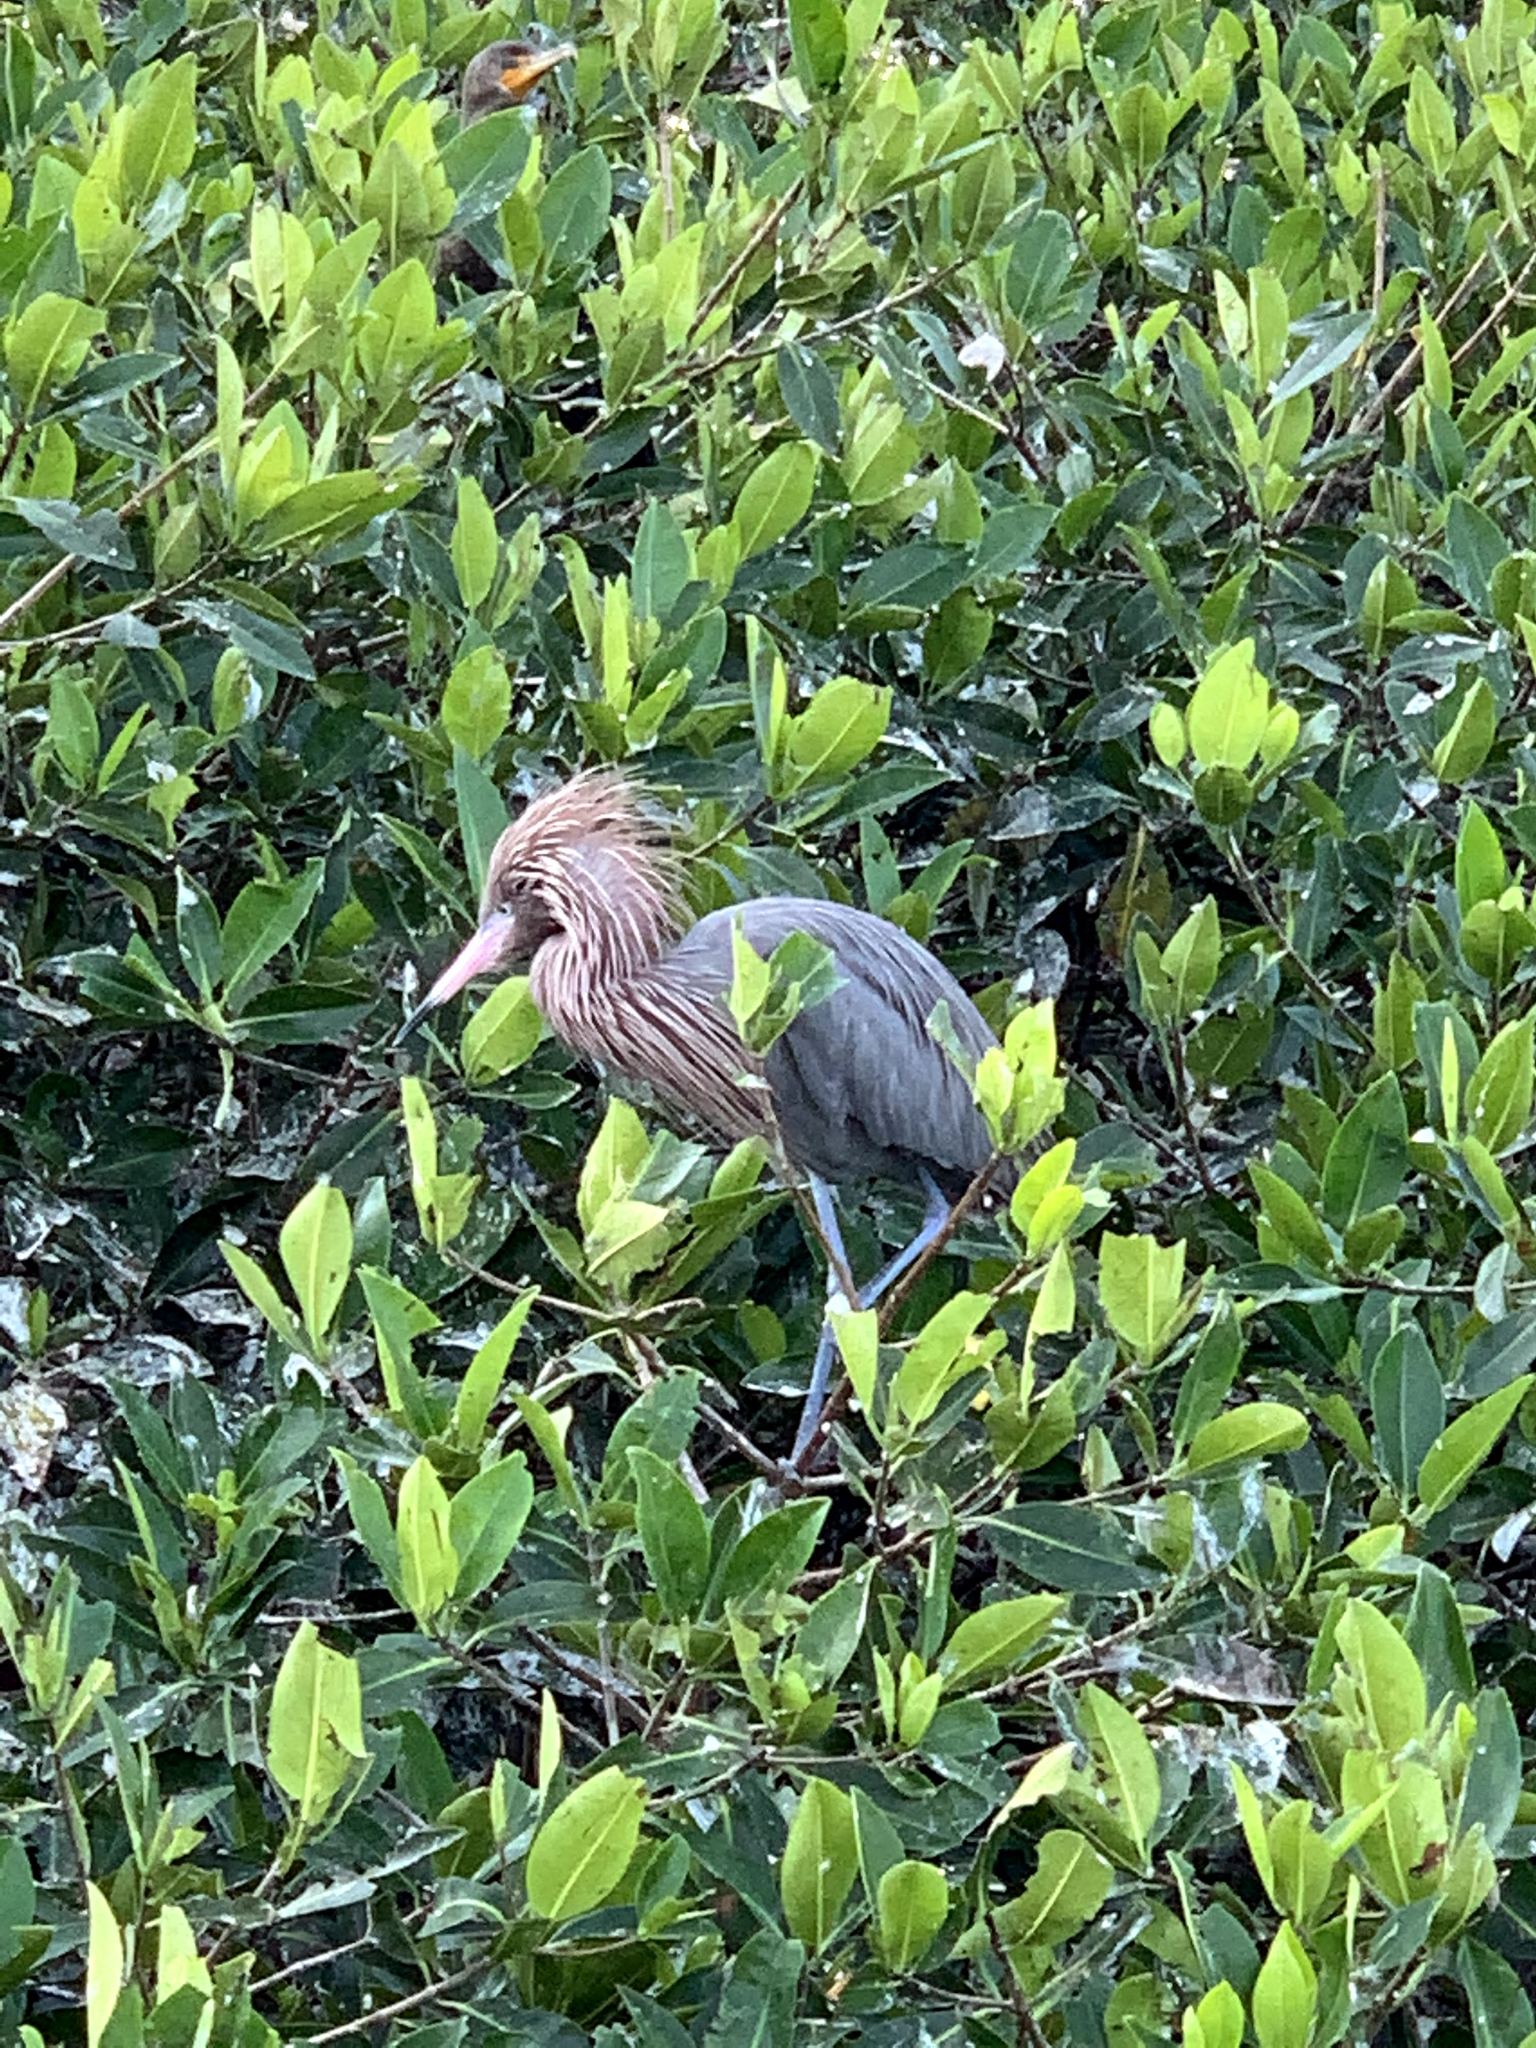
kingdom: Animalia
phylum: Chordata
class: Aves
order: Pelecaniformes
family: Ardeidae
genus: Egretta
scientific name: Egretta rufescens
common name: Reddish egret
